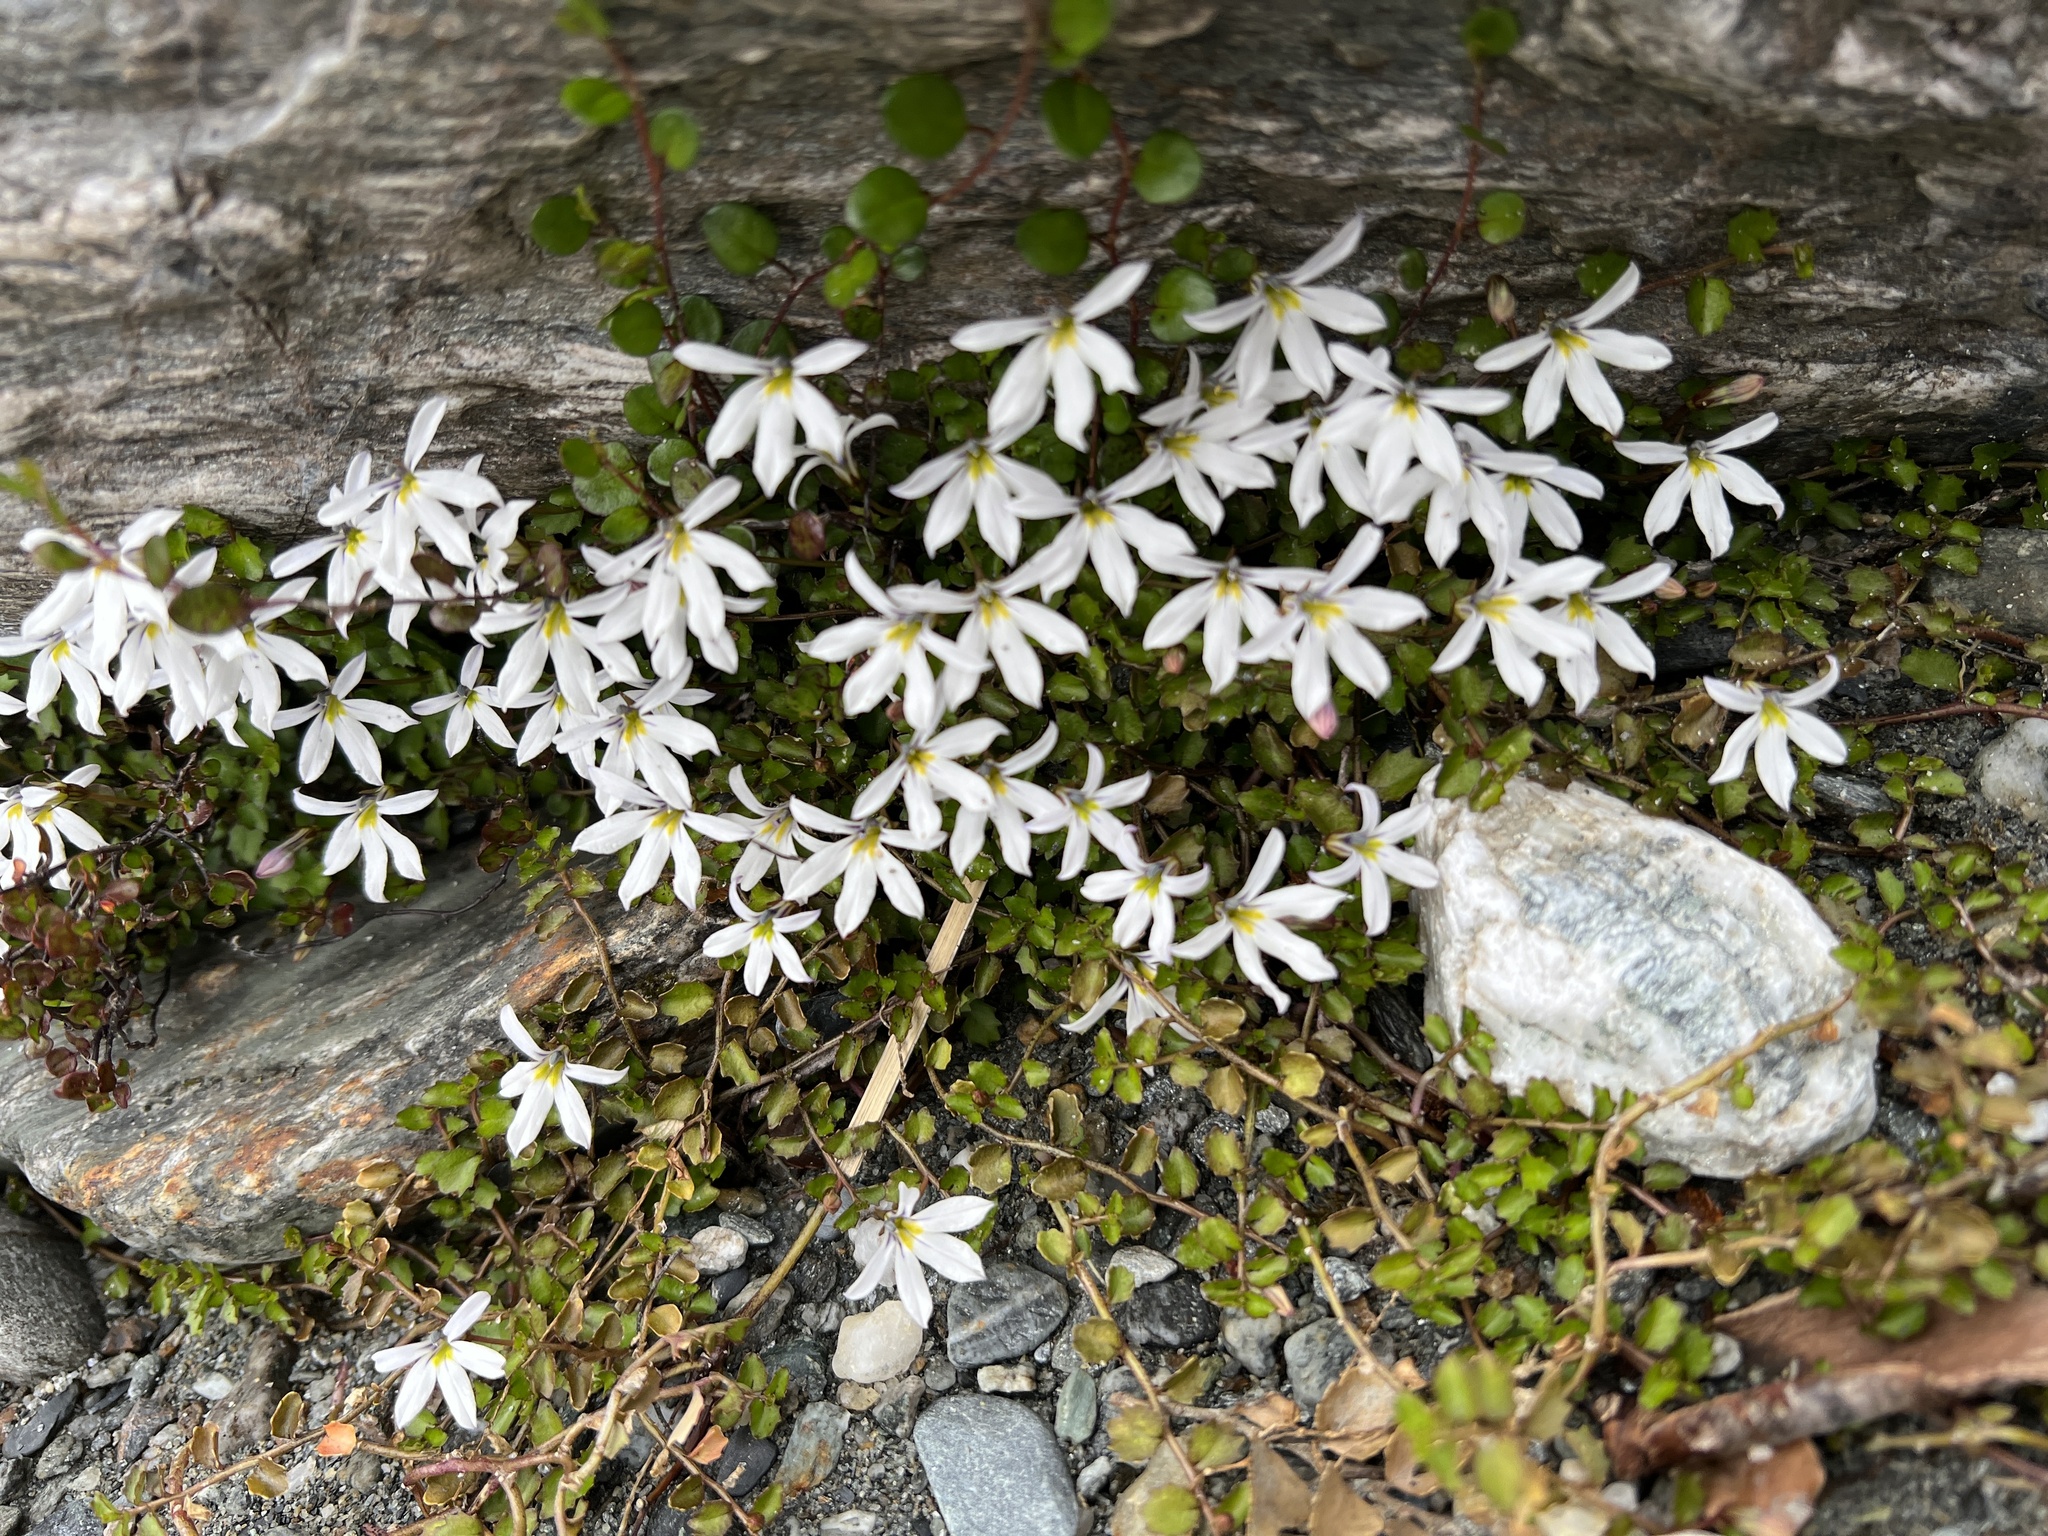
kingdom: Plantae
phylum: Tracheophyta
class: Magnoliopsida
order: Asterales
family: Campanulaceae
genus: Lobelia
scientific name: Lobelia angulata
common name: Lawn lobelia
